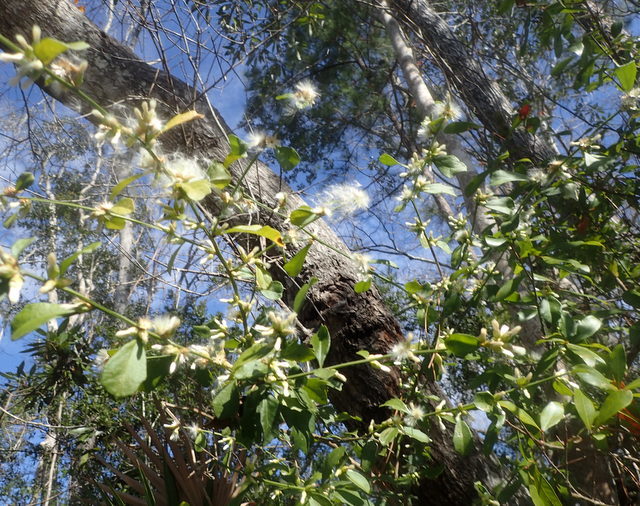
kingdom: Plantae
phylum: Tracheophyta
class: Magnoliopsida
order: Asterales
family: Asteraceae
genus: Baccharis
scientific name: Baccharis glomeruliflora
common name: Silverling groundsel bush
